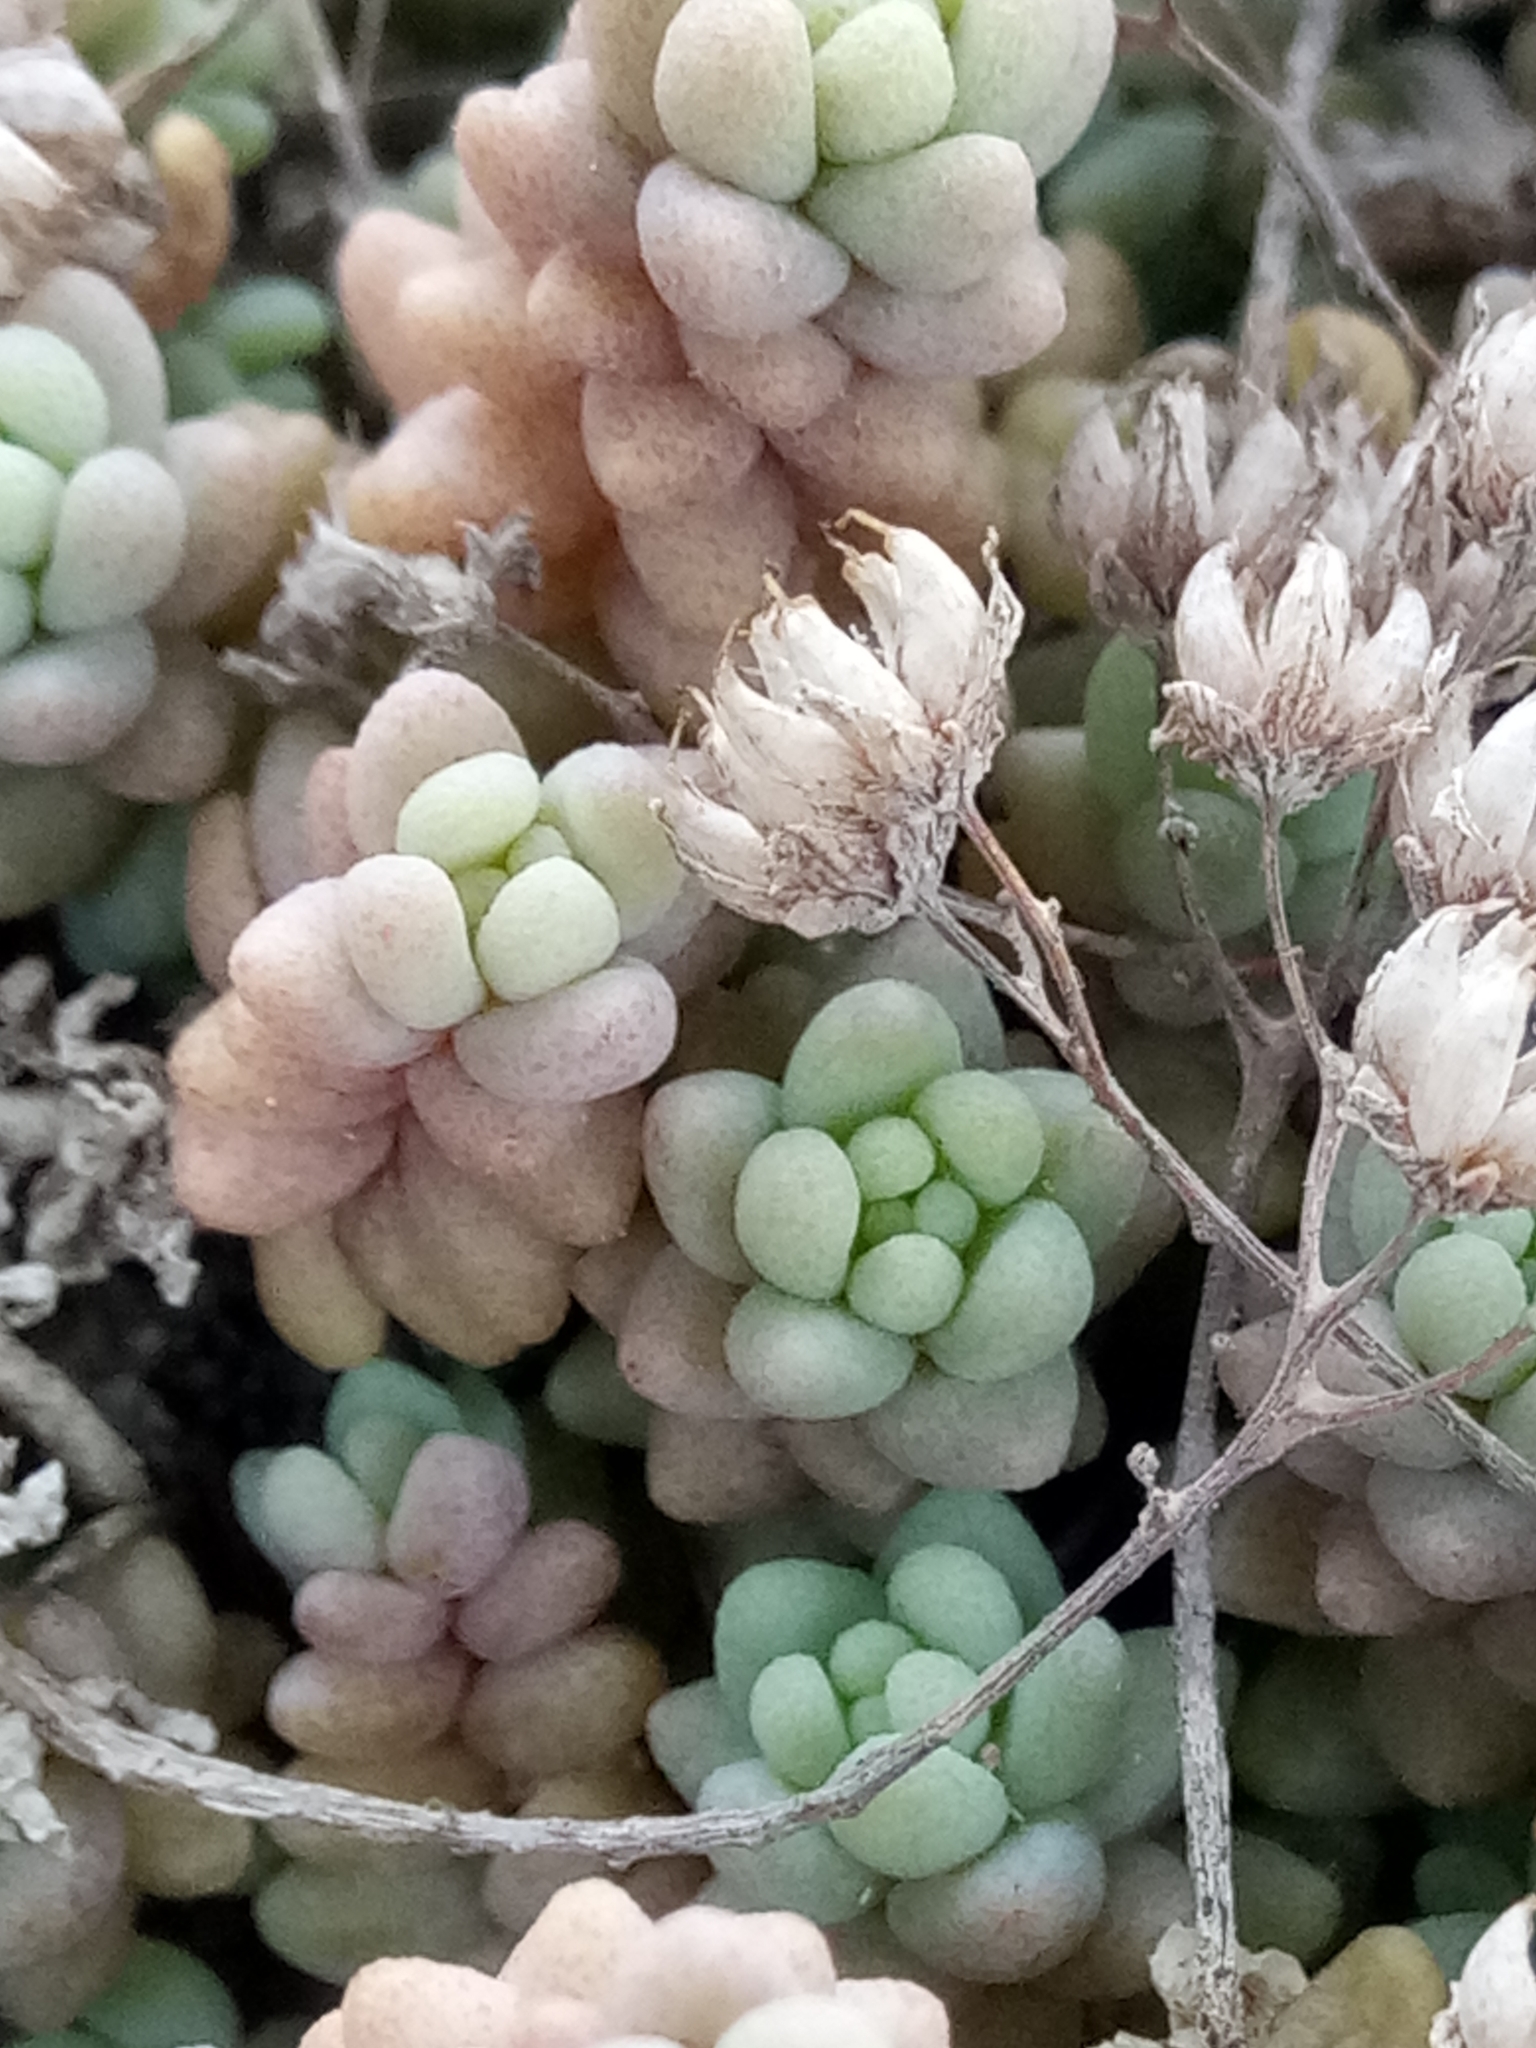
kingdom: Plantae
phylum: Tracheophyta
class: Magnoliopsida
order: Saxifragales
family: Crassulaceae
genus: Sedum
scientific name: Sedum dasyphyllum
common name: Thick-leaf stonecrop
